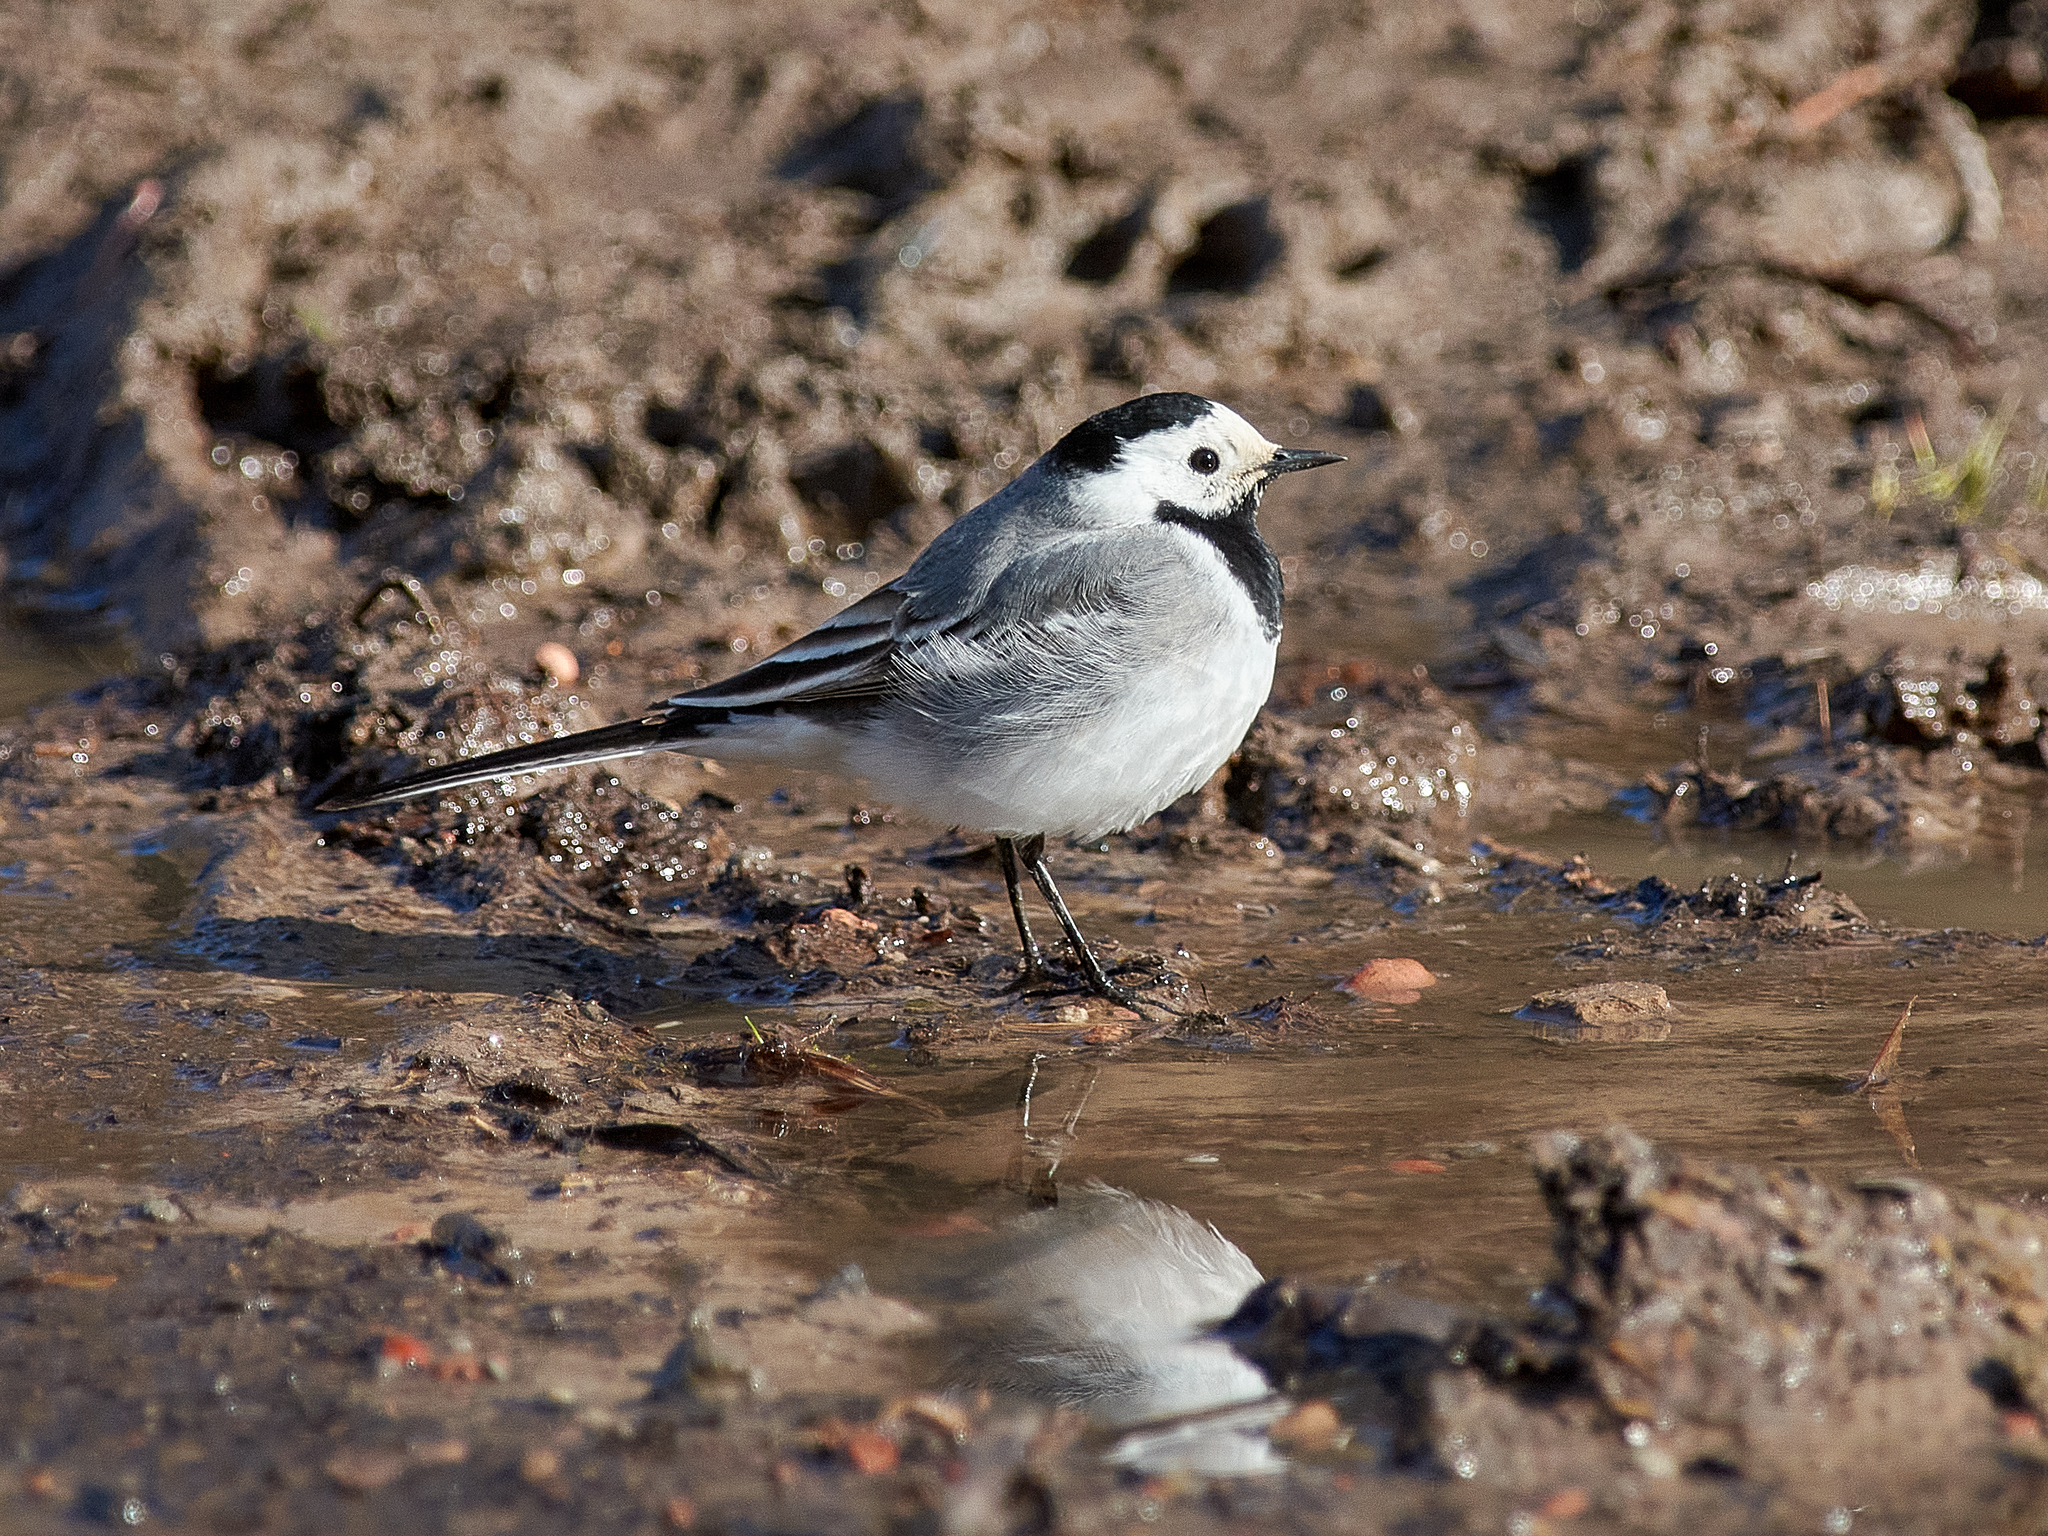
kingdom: Animalia
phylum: Chordata
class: Aves
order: Passeriformes
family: Motacillidae
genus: Motacilla
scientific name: Motacilla alba
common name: White wagtail
